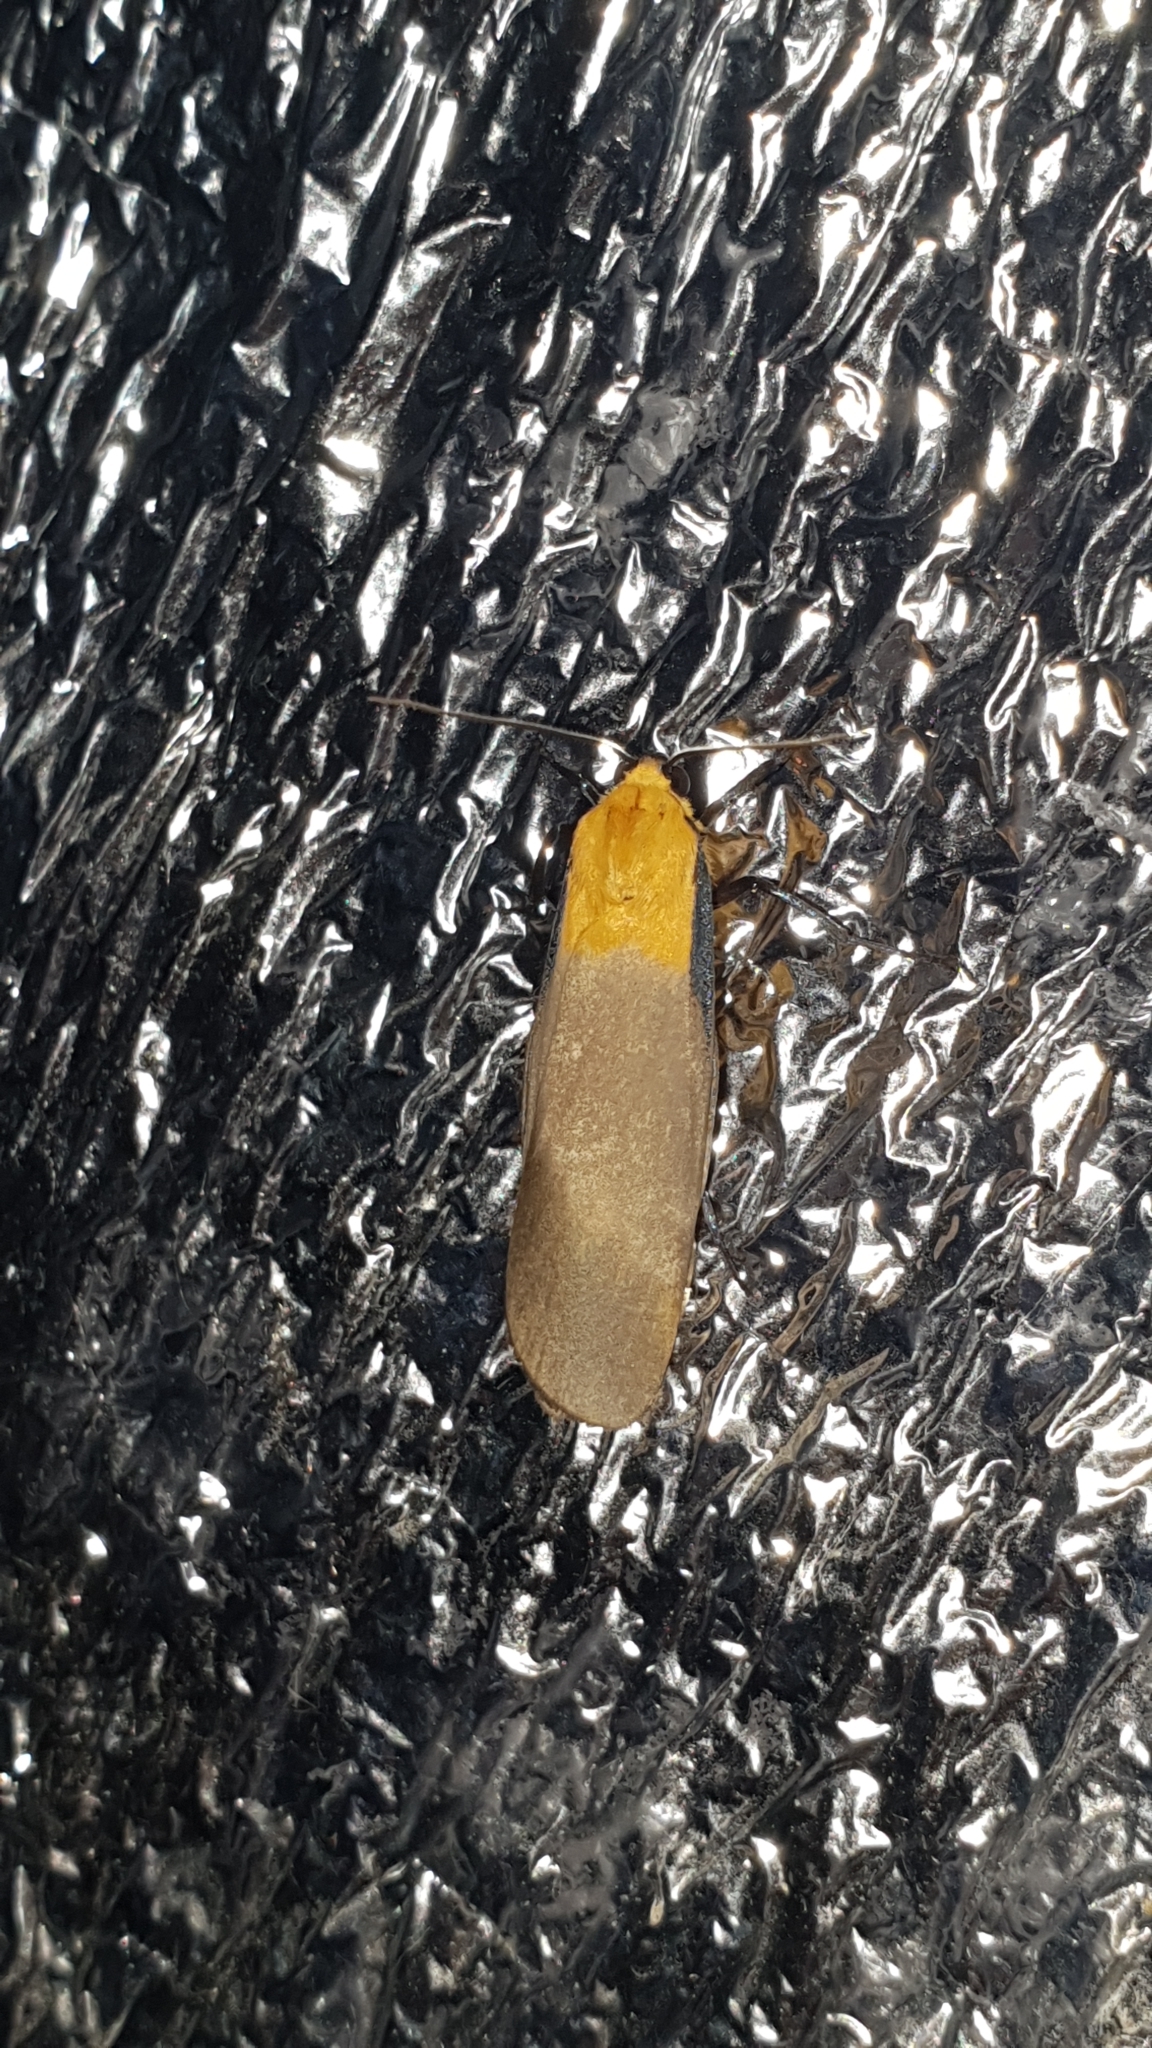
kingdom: Animalia
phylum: Arthropoda
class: Insecta
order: Lepidoptera
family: Erebidae
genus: Lithosia
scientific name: Lithosia quadra
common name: Four-spotted footman
